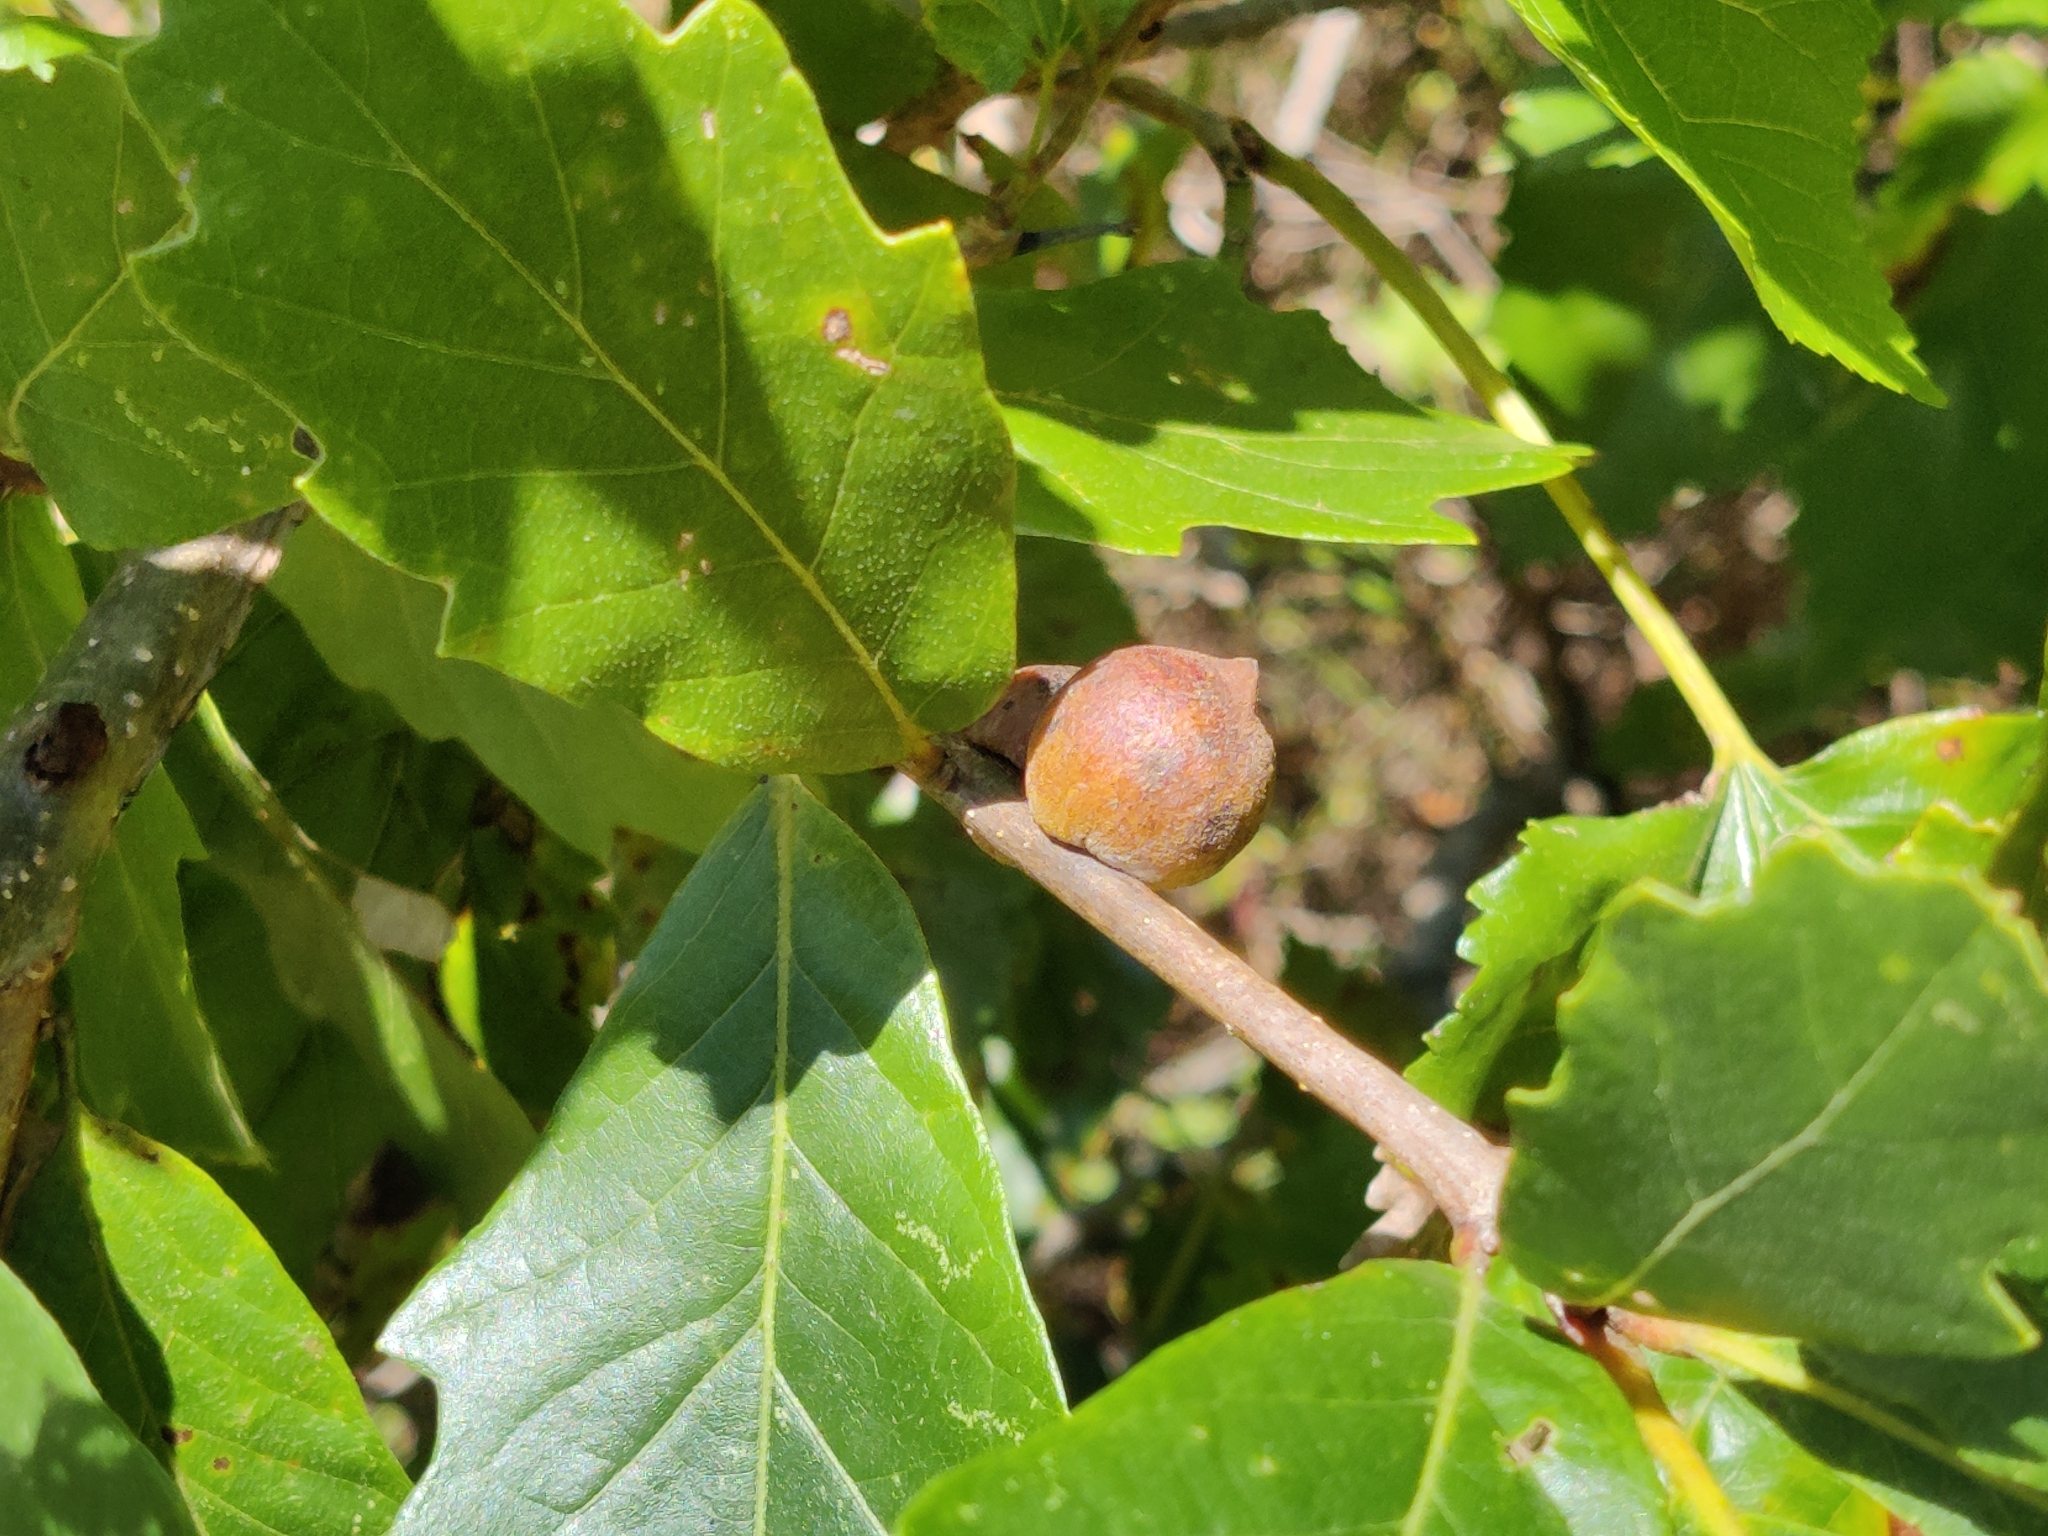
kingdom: Animalia
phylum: Arthropoda
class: Insecta
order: Hymenoptera
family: Cynipidae
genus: Disholcaspis
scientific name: Disholcaspis
